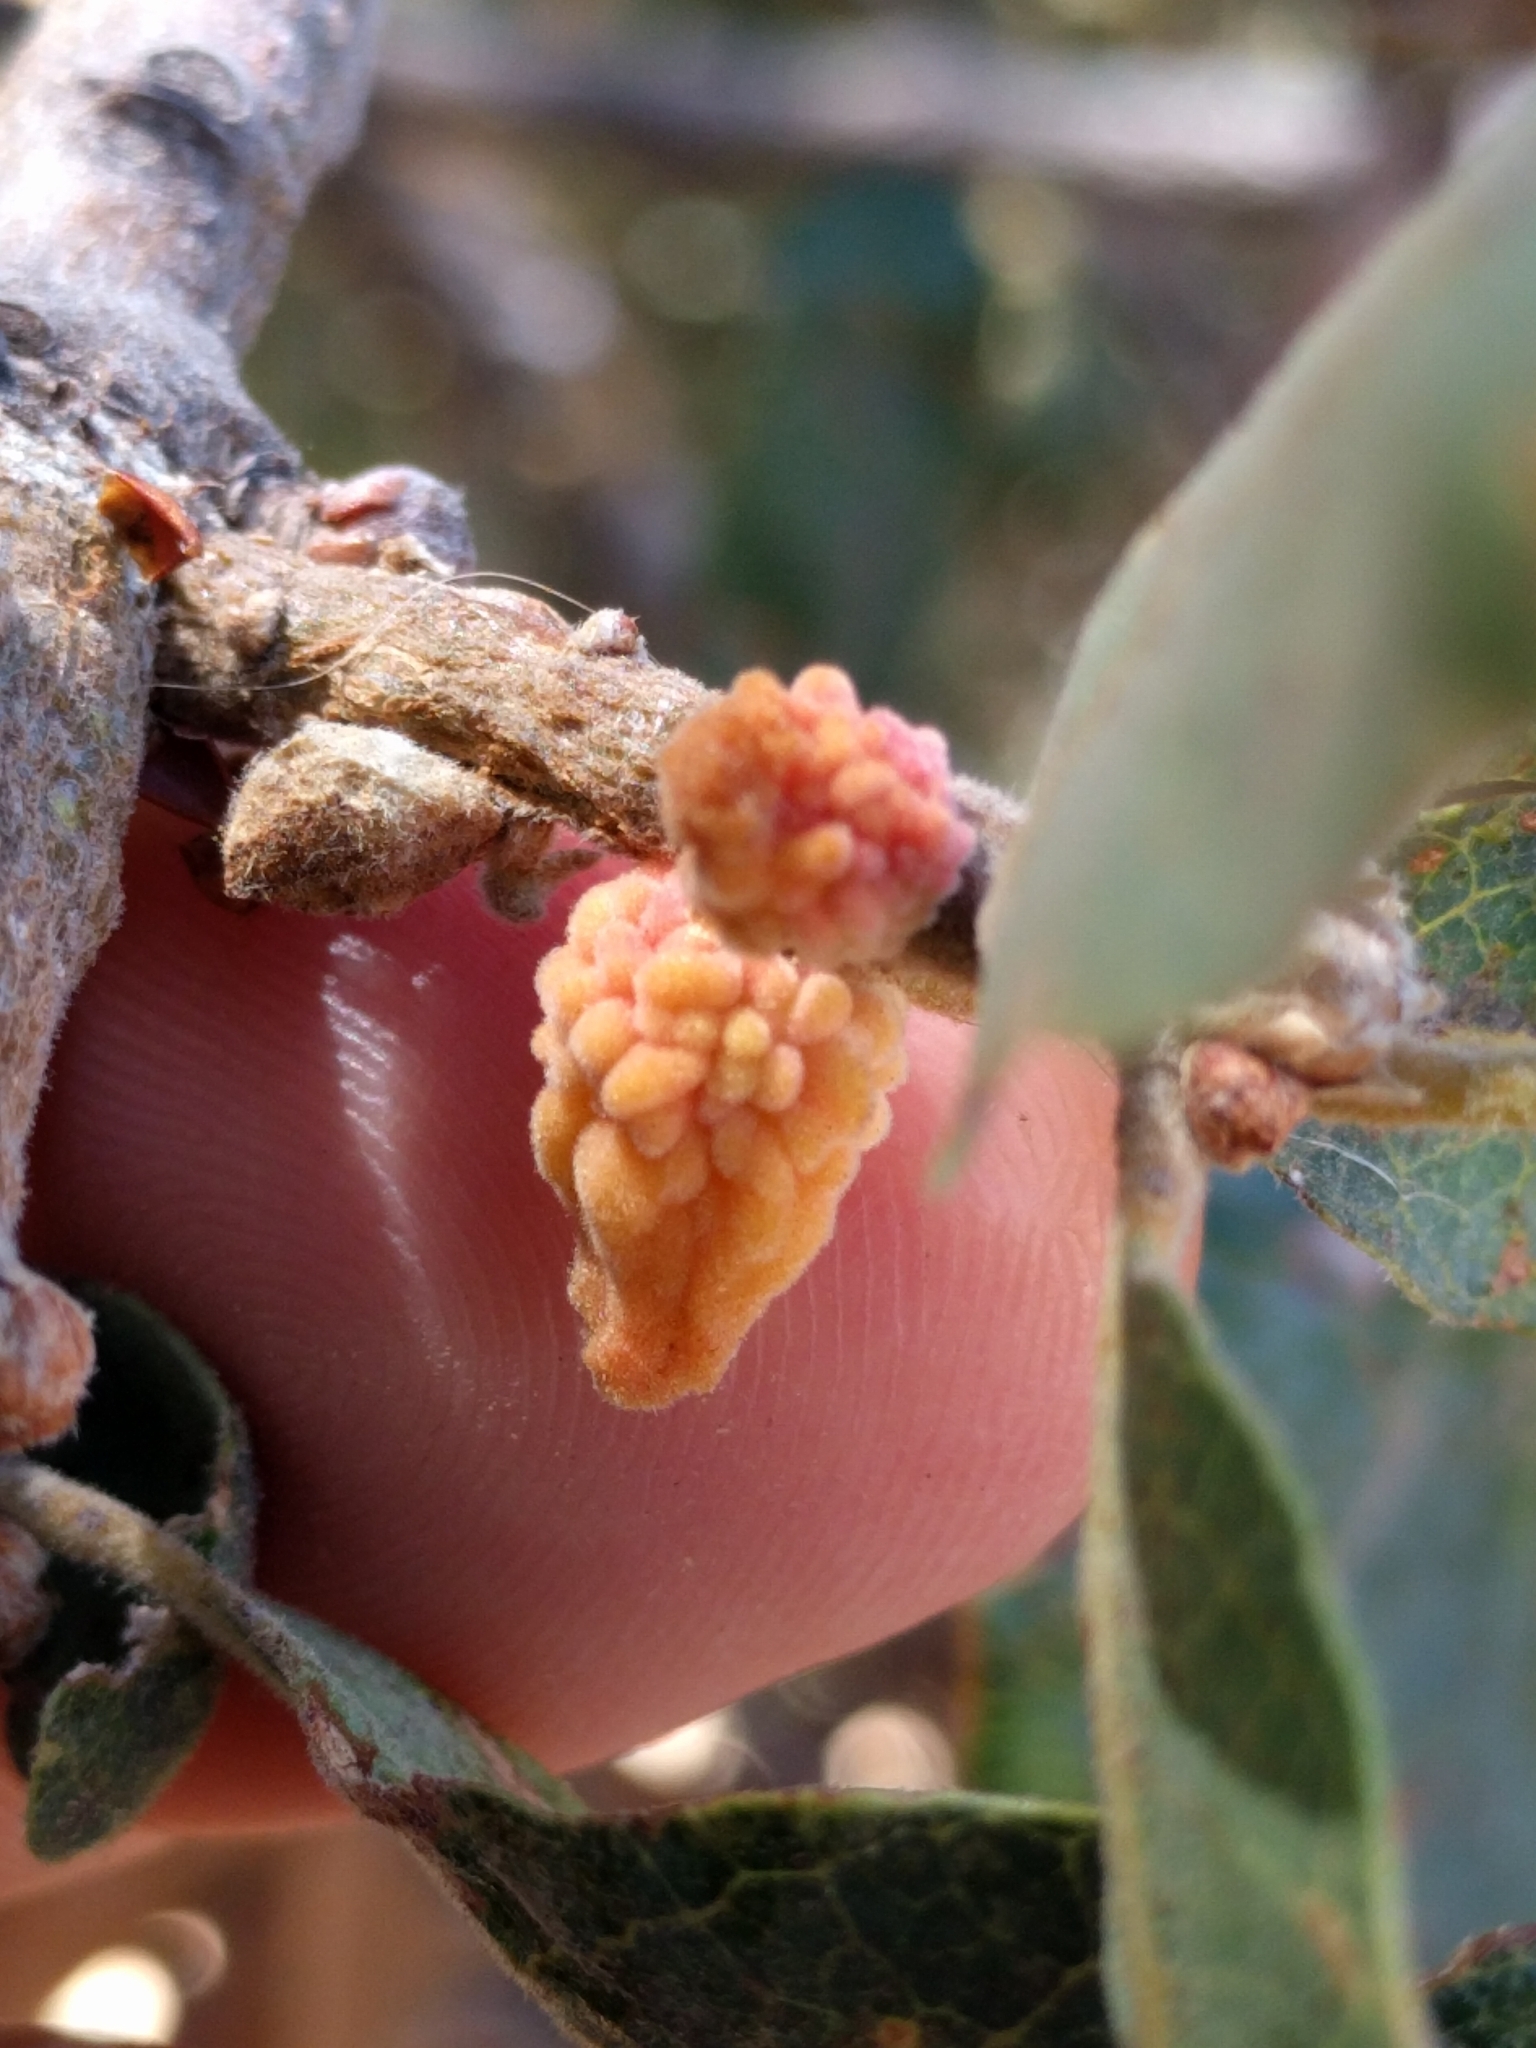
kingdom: Animalia
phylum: Arthropoda
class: Insecta
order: Hymenoptera
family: Cynipidae
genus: Burnettweldia
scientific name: Burnettweldia
